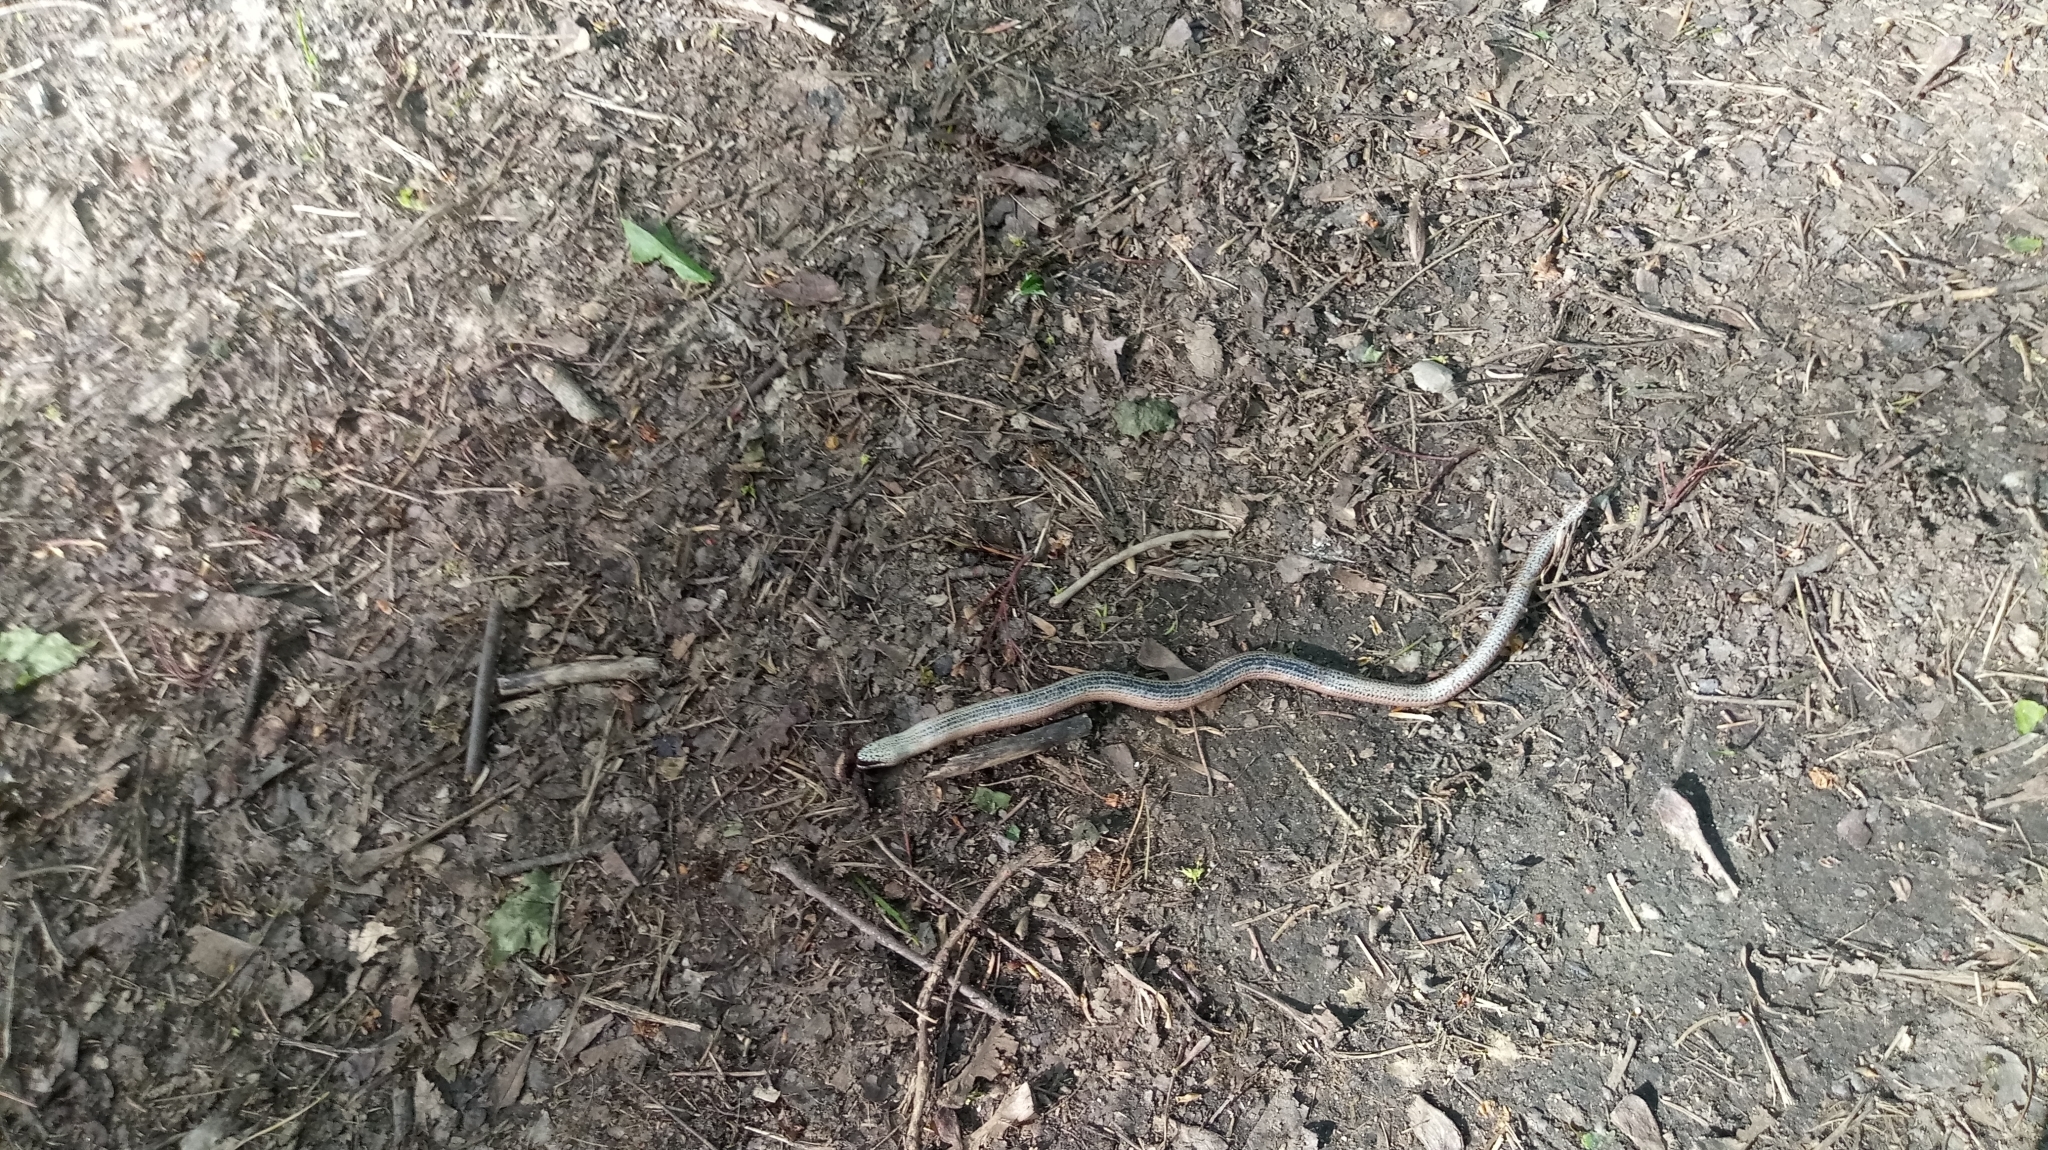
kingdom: Animalia
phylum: Chordata
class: Squamata
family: Anguidae
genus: Anguis
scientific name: Anguis fragilis
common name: Slow worm
